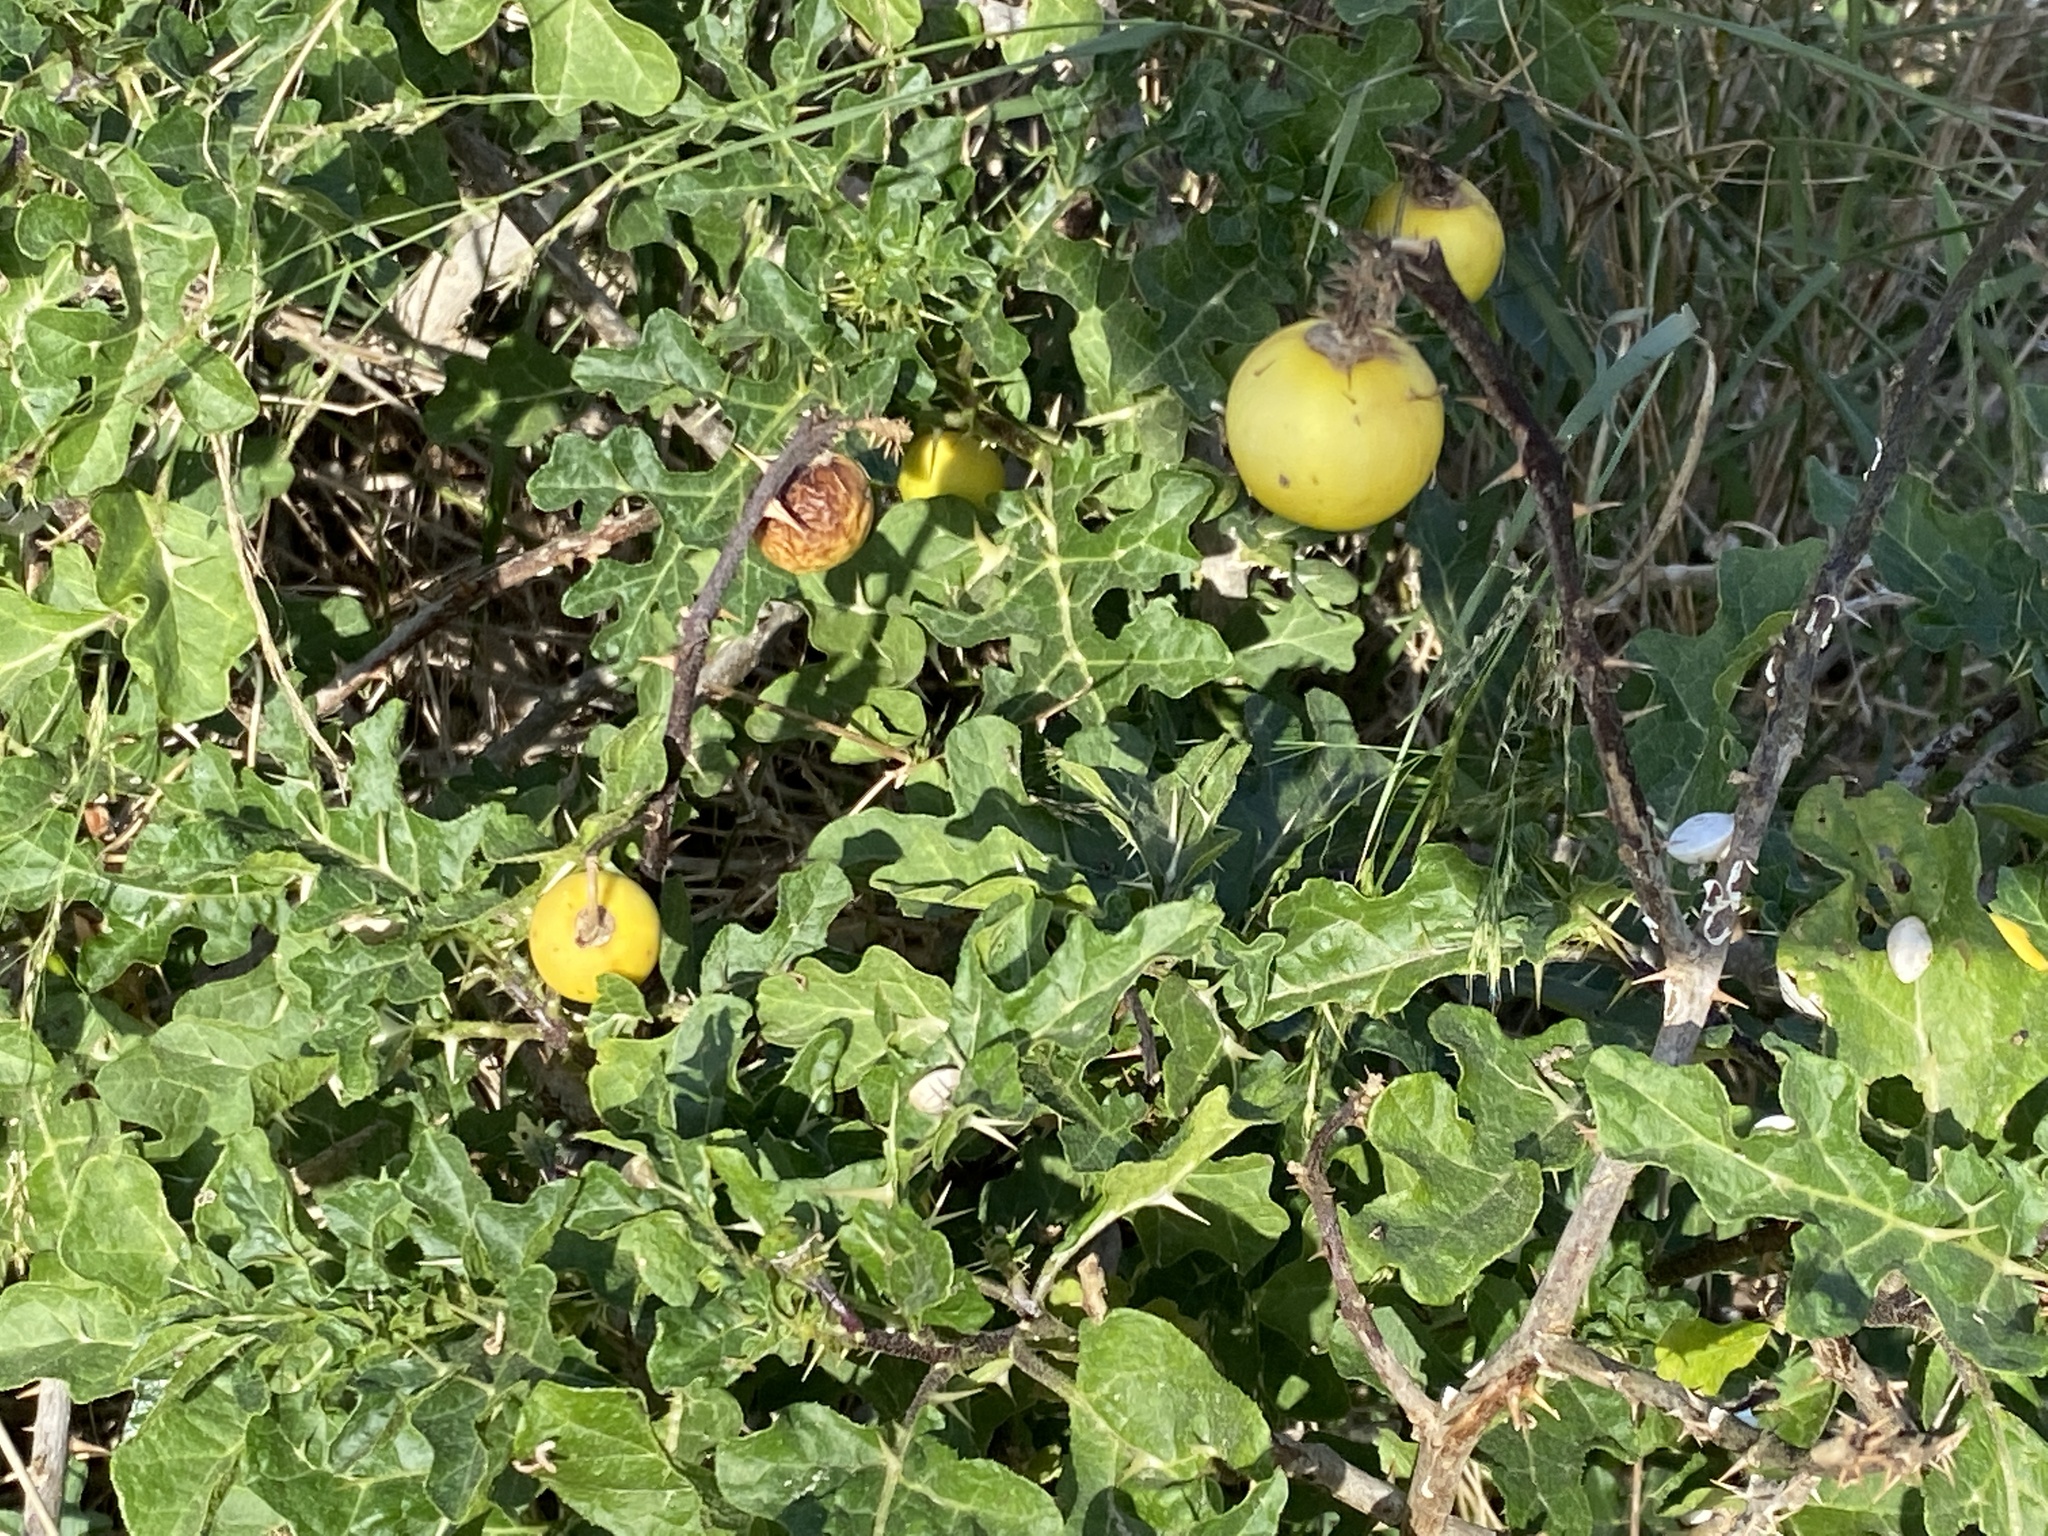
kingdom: Plantae
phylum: Tracheophyta
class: Magnoliopsida
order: Solanales
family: Solanaceae
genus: Solanum
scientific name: Solanum linnaeanum
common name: Nightshade
